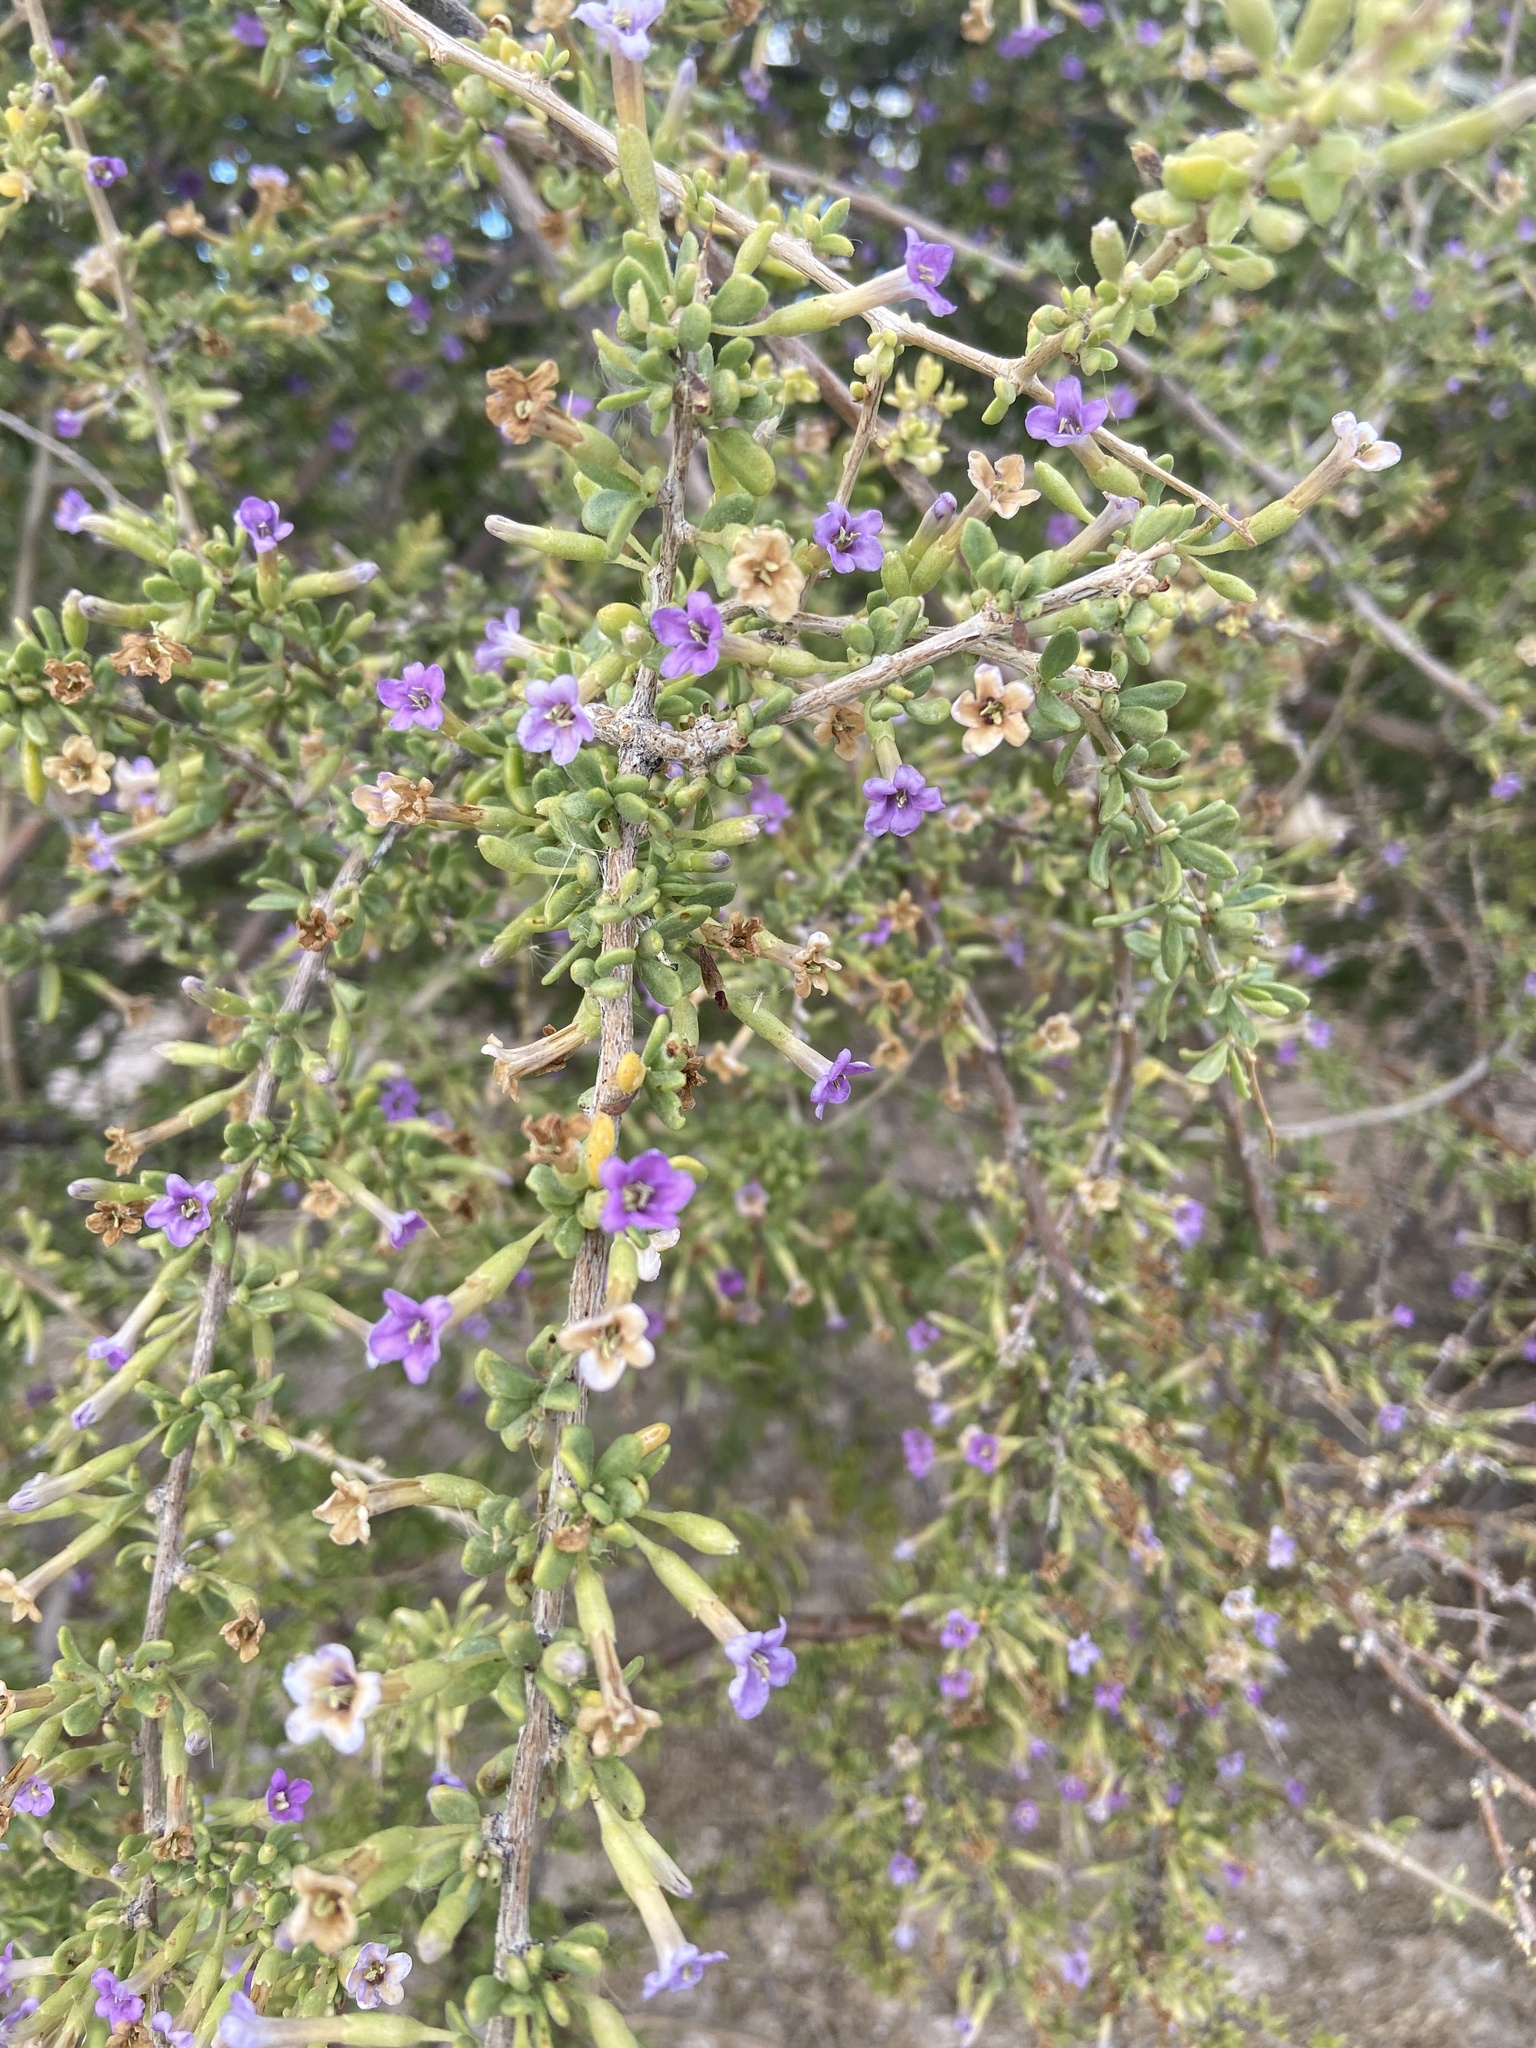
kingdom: Plantae
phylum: Tracheophyta
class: Magnoliopsida
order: Solanales
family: Solanaceae
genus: Lycium
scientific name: Lycium andersonii
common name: Water-jacket
